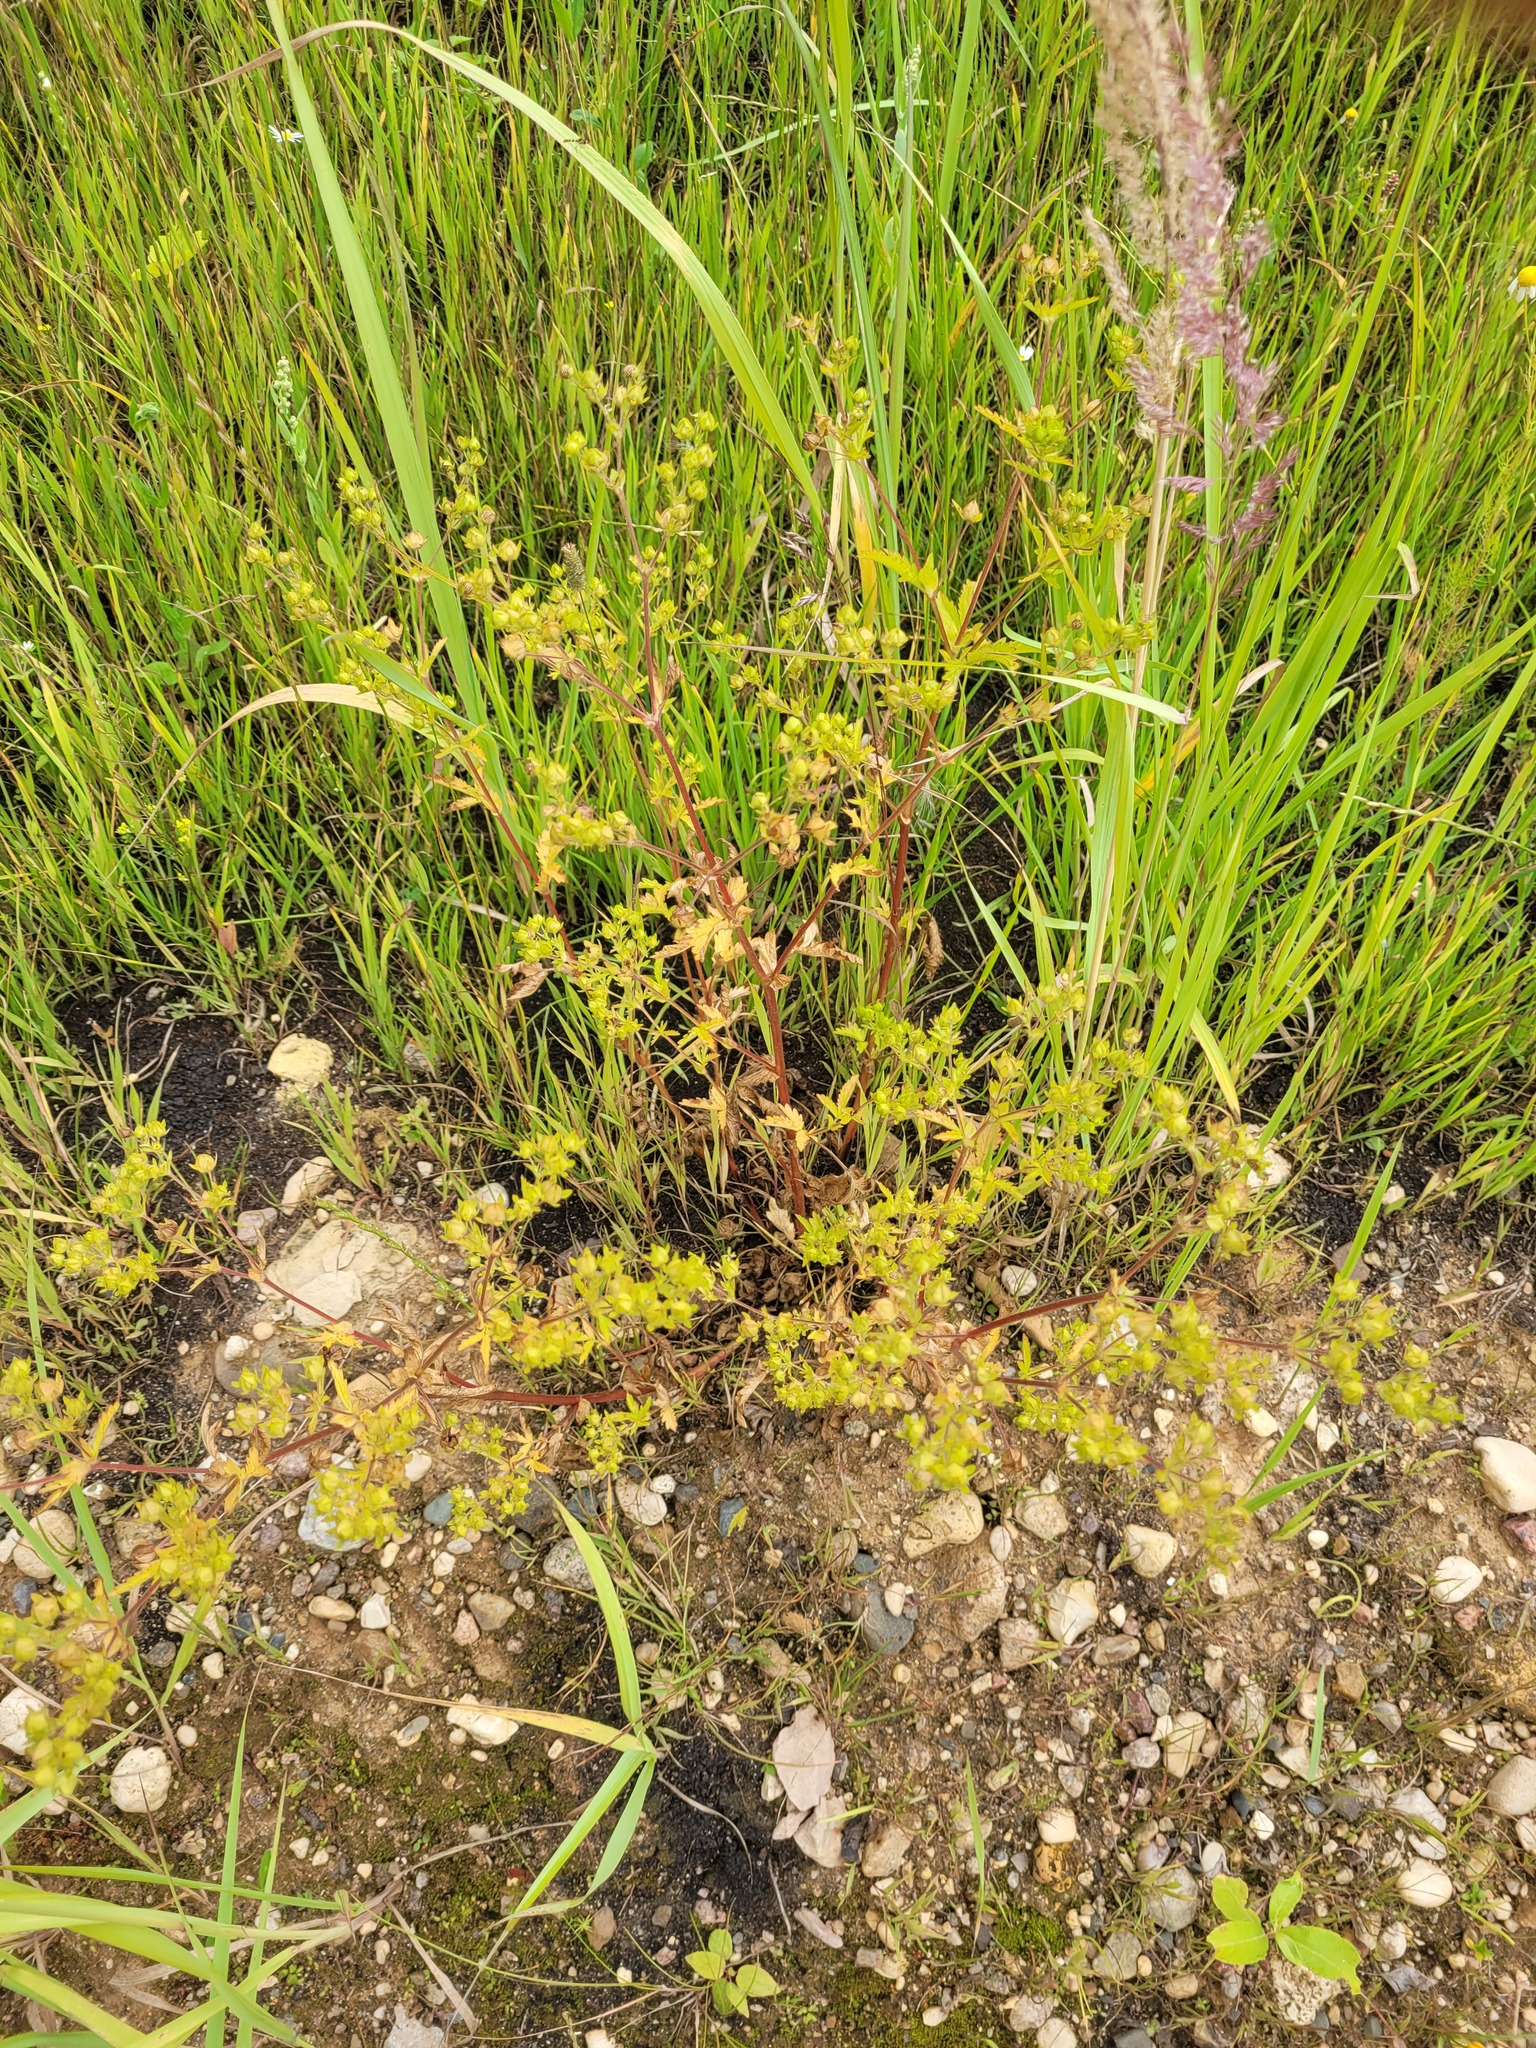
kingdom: Plantae
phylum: Tracheophyta
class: Magnoliopsida
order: Rosales
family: Rosaceae
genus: Potentilla
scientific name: Potentilla norvegica
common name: Ternate-leaved cinquefoil
